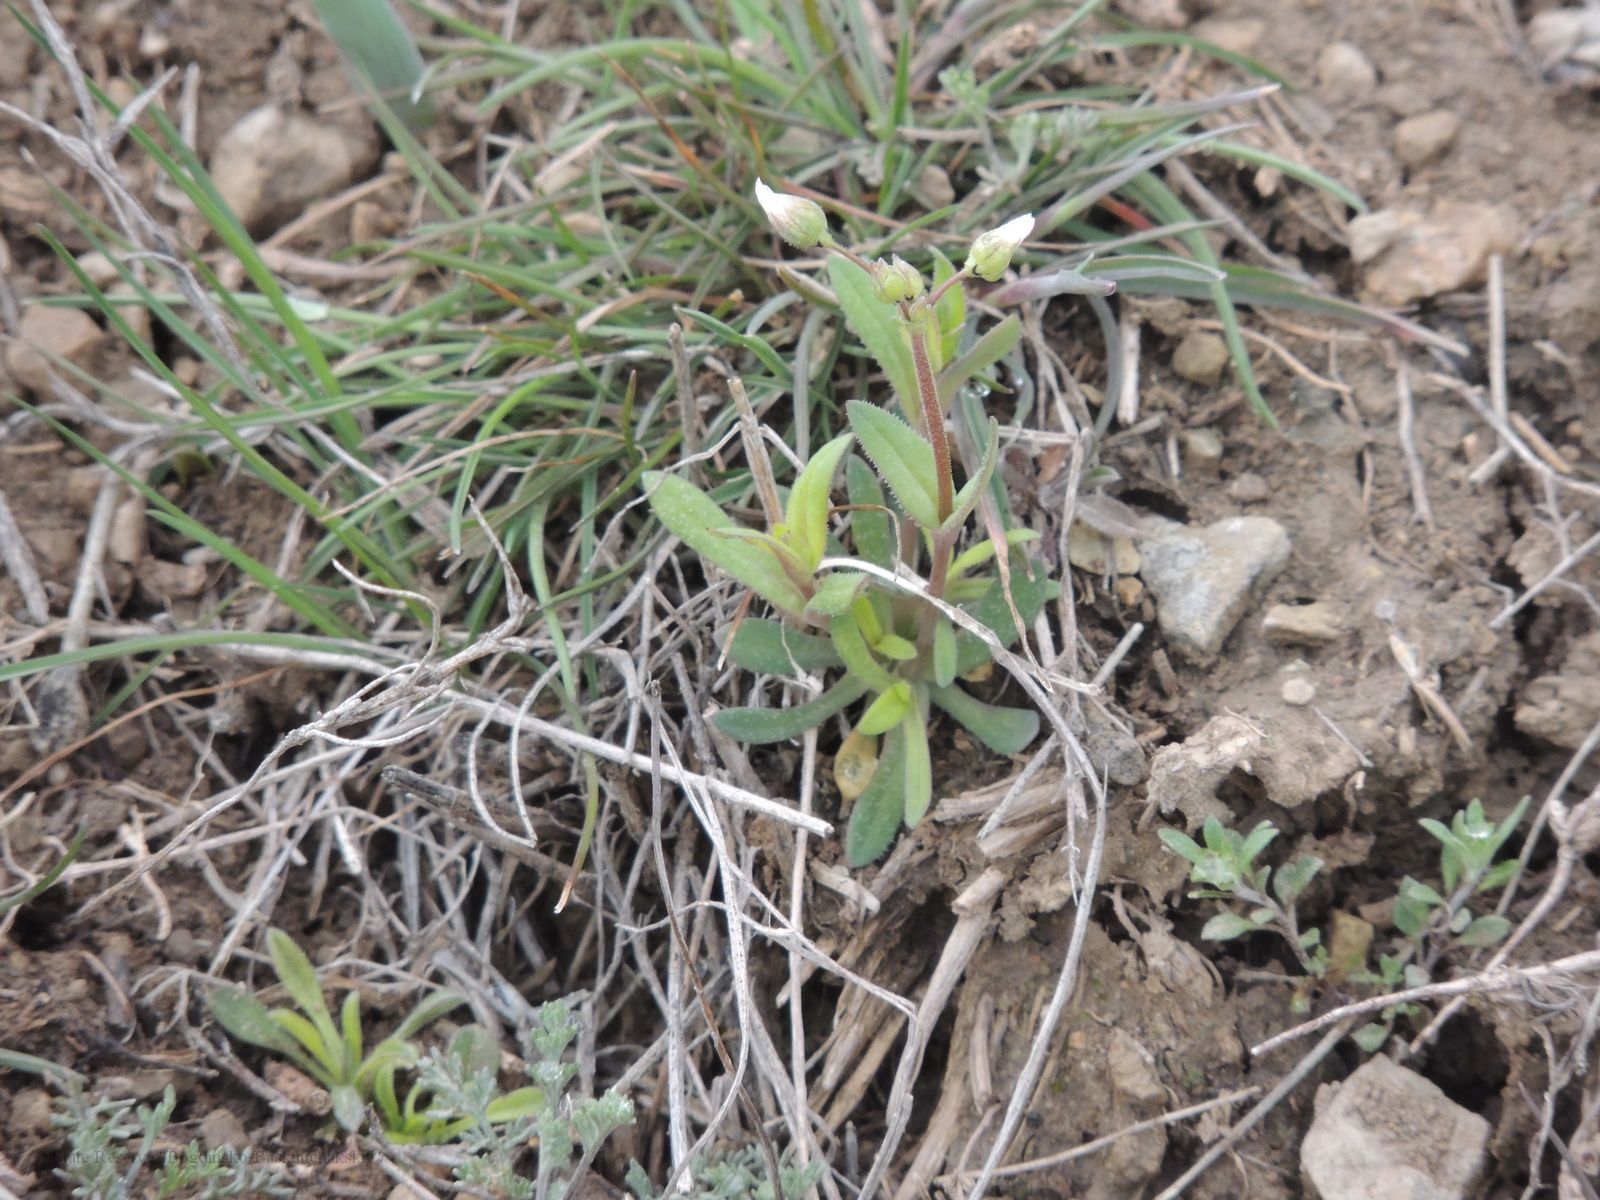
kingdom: Plantae
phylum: Tracheophyta
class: Magnoliopsida
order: Caryophyllales
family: Caryophyllaceae
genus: Holosteum
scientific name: Holosteum umbellatum
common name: Jagged chickweed
